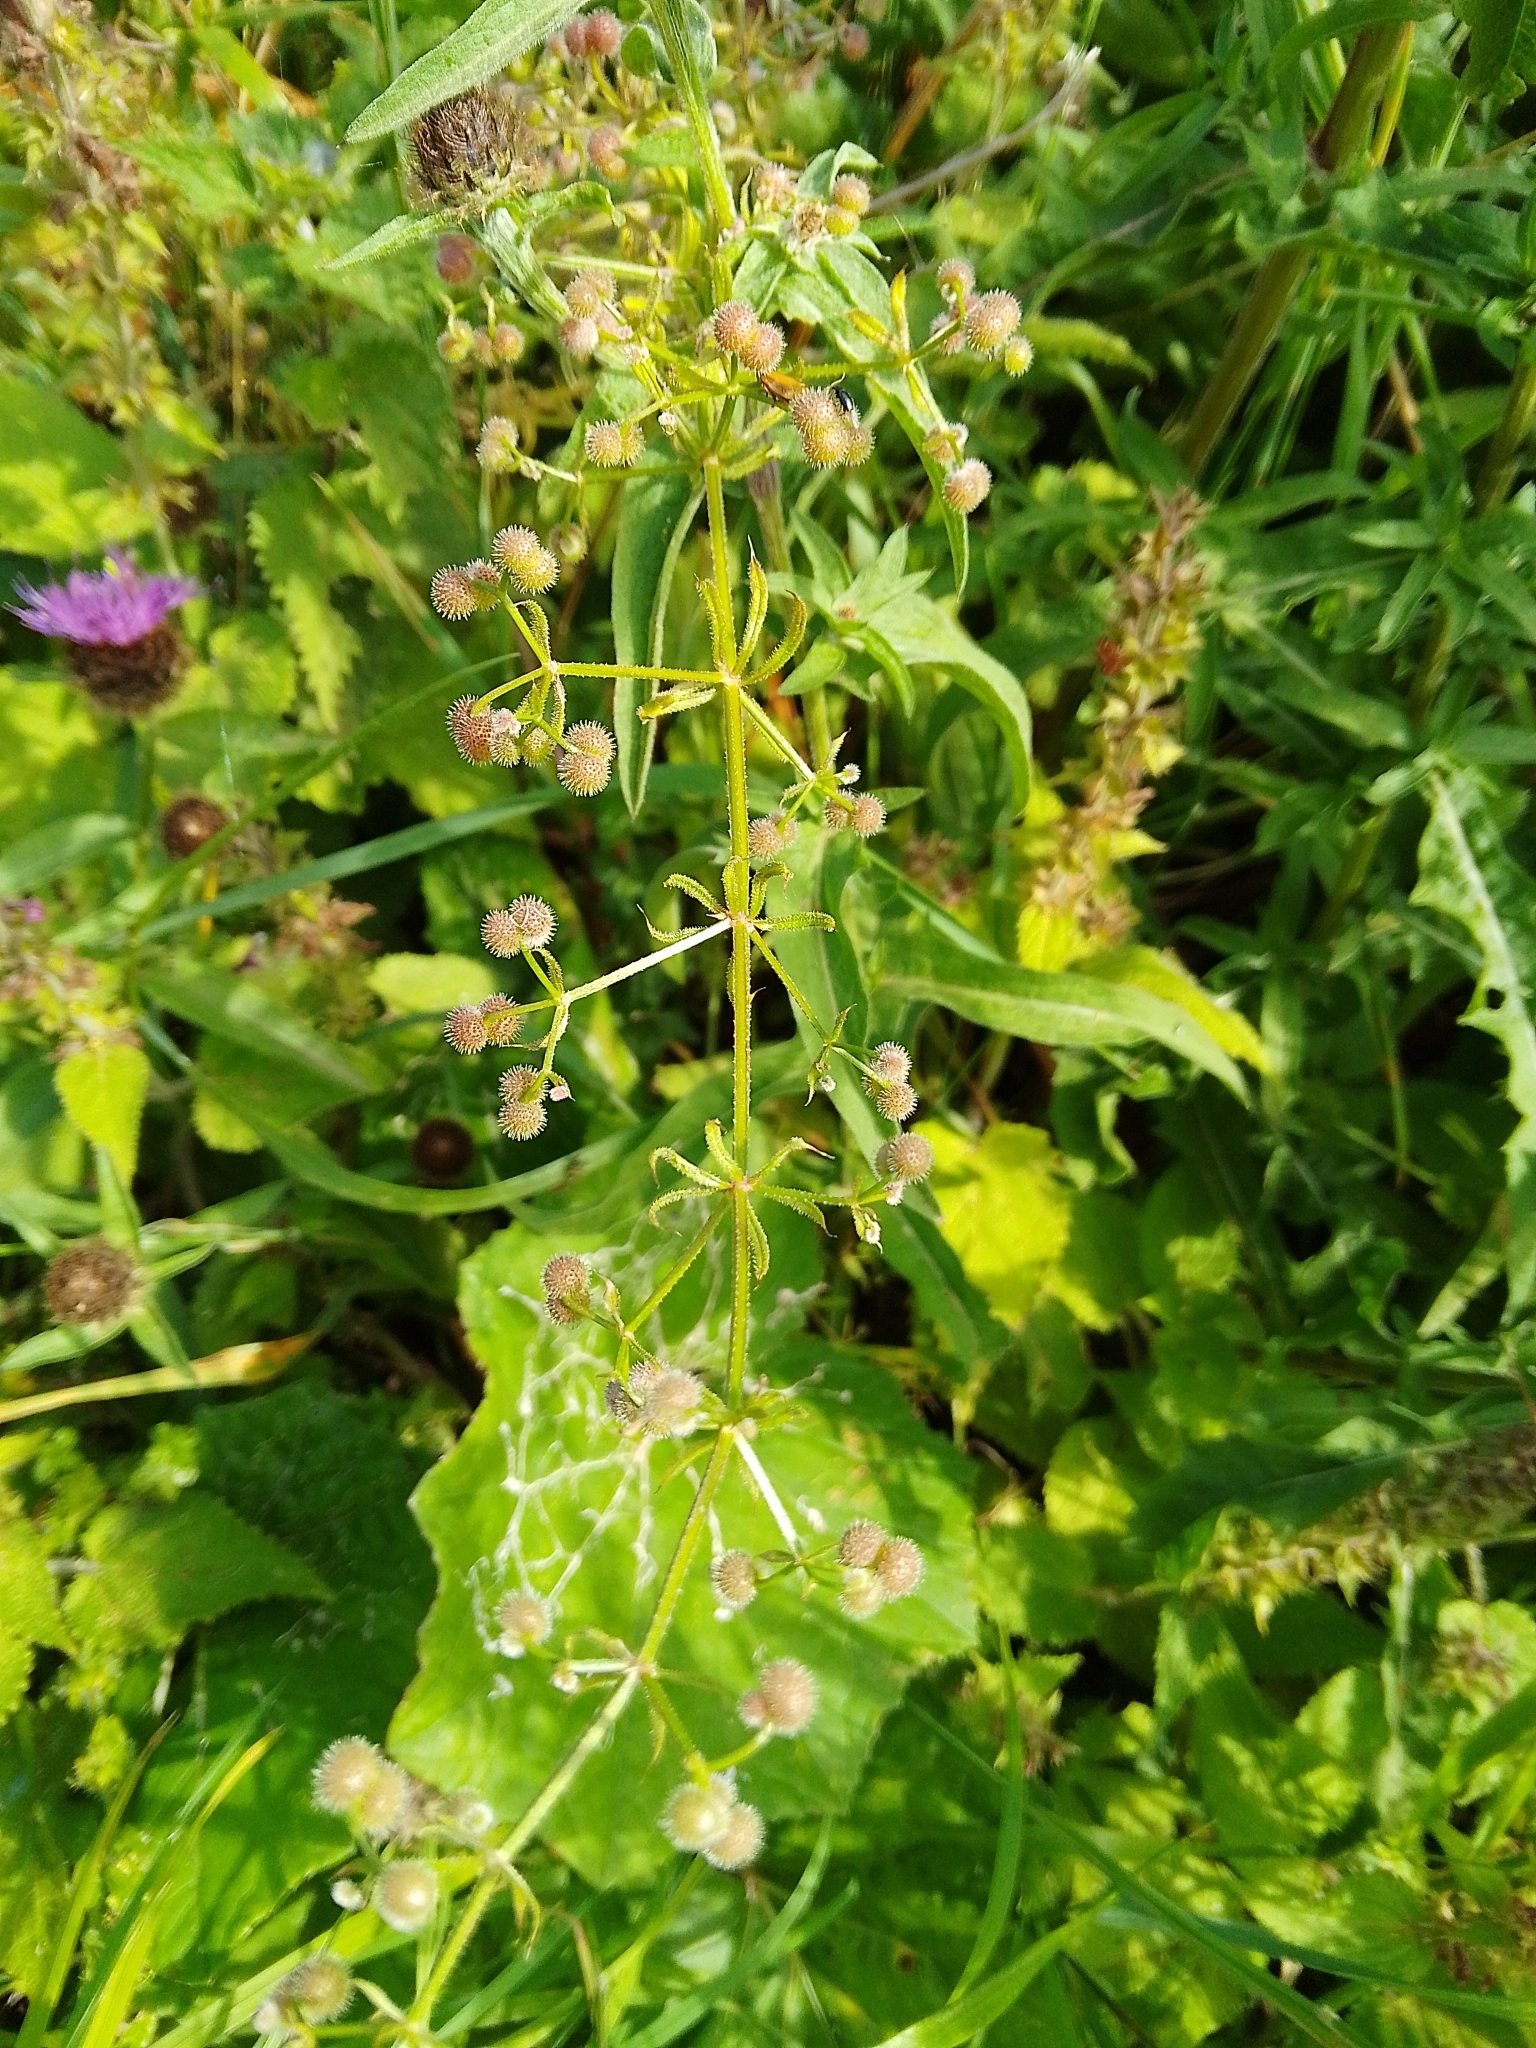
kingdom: Plantae
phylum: Tracheophyta
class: Magnoliopsida
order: Gentianales
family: Rubiaceae
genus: Galium
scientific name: Galium aparine
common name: Cleavers
